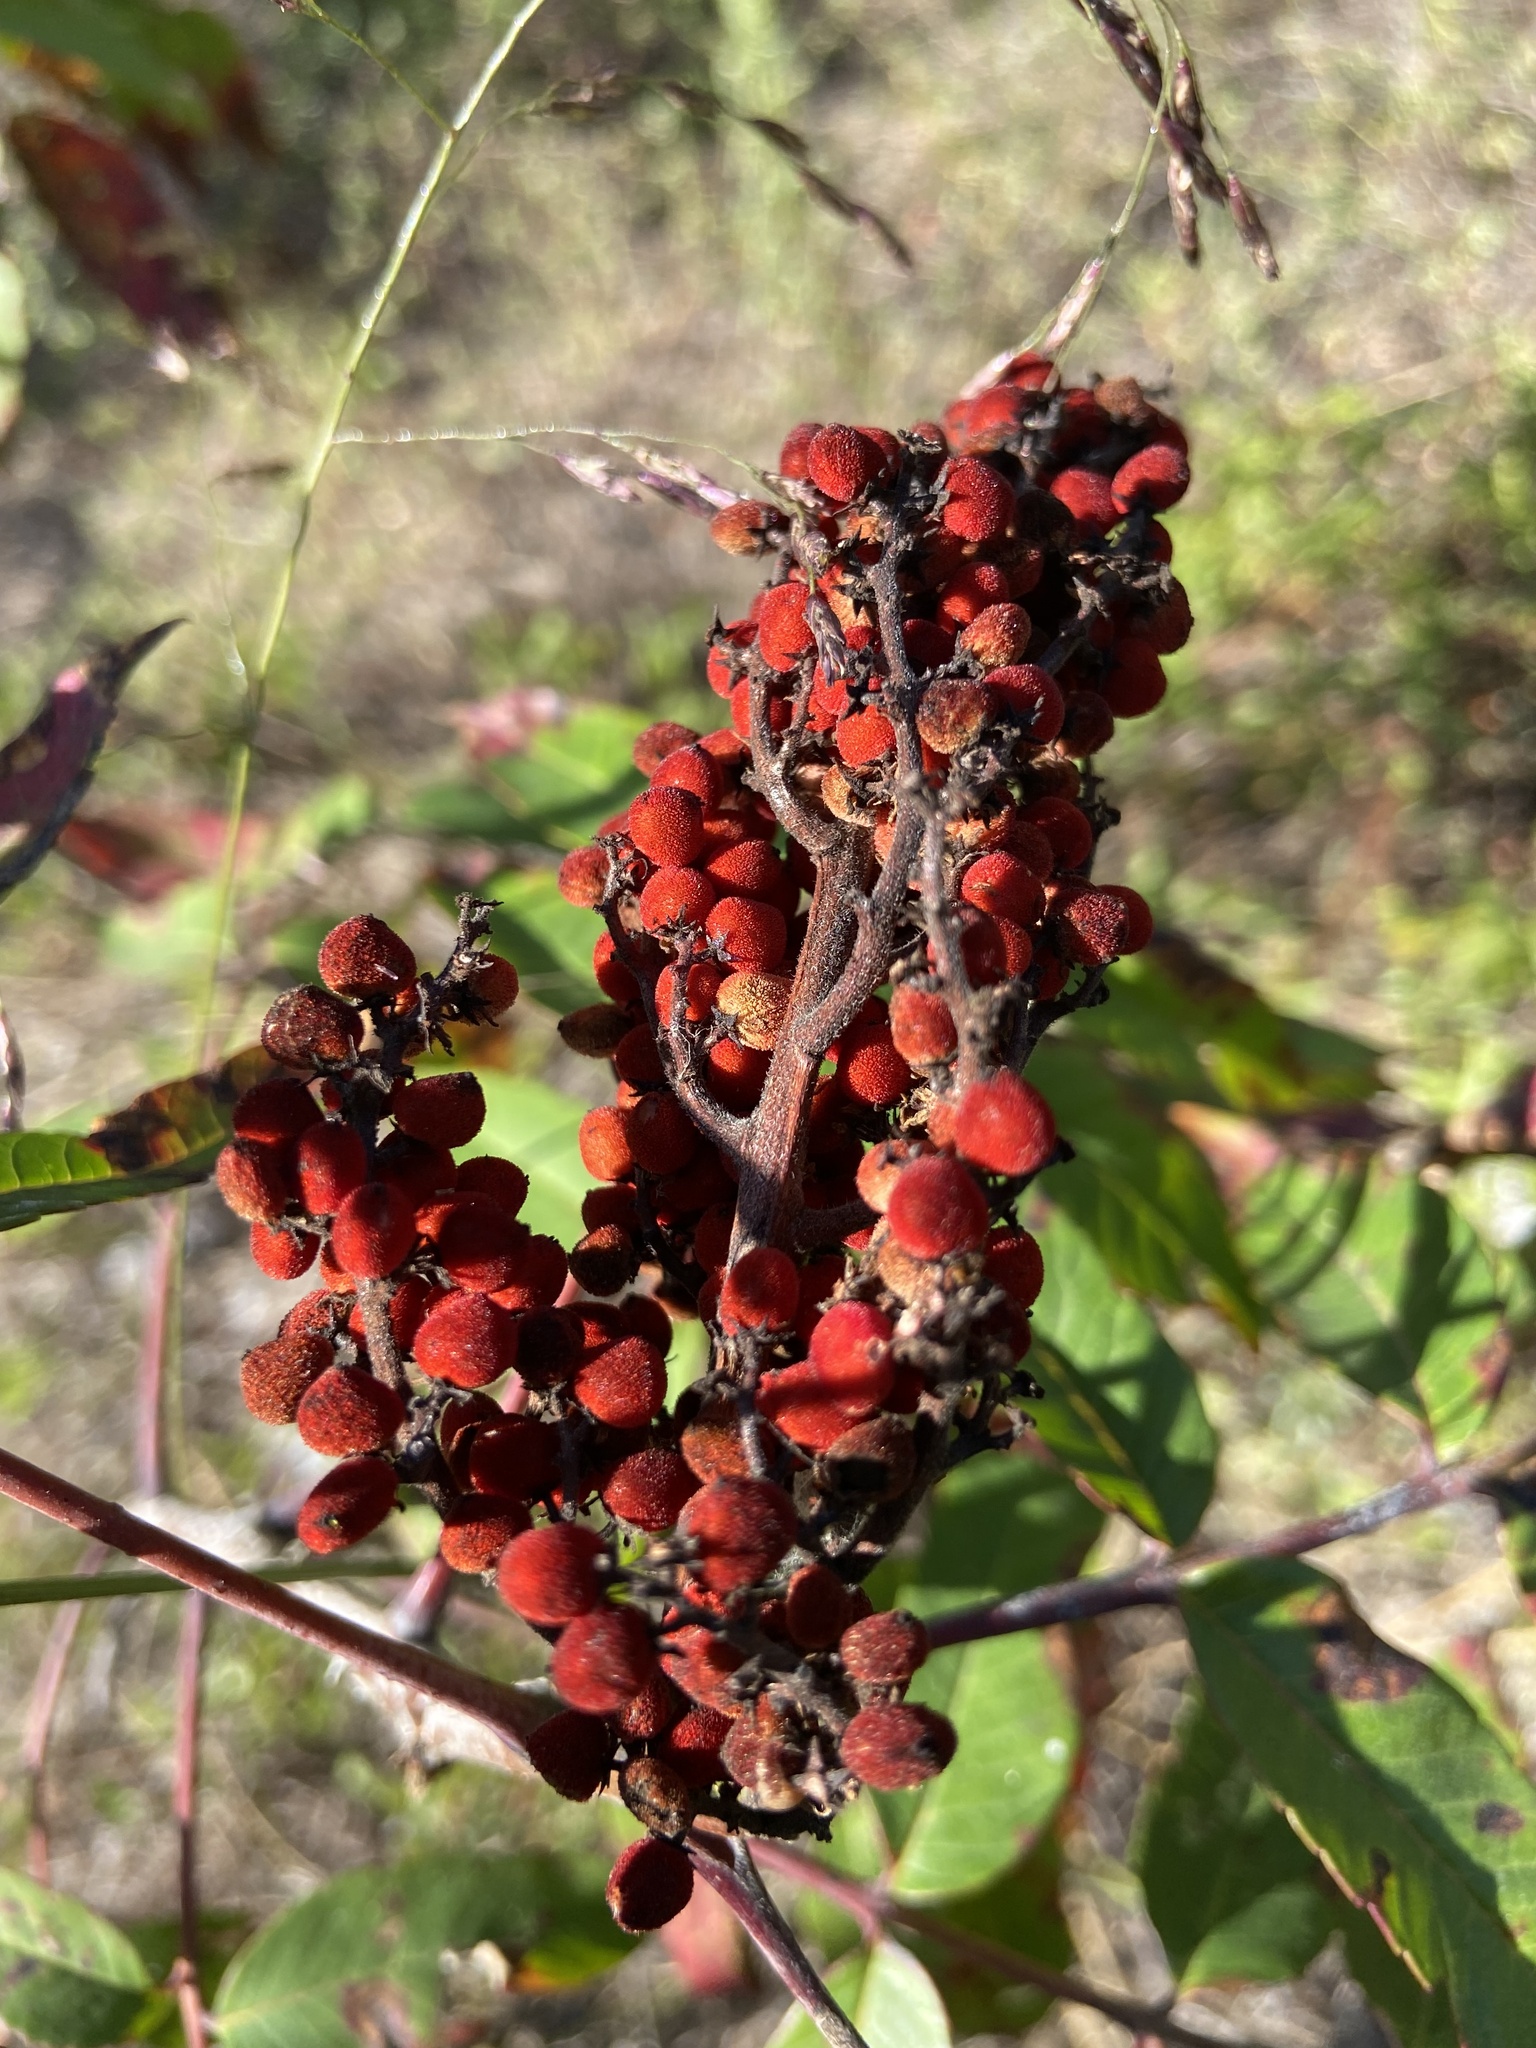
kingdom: Plantae
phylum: Tracheophyta
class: Magnoliopsida
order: Sapindales
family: Anacardiaceae
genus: Rhus
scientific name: Rhus glabra
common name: Scarlet sumac
